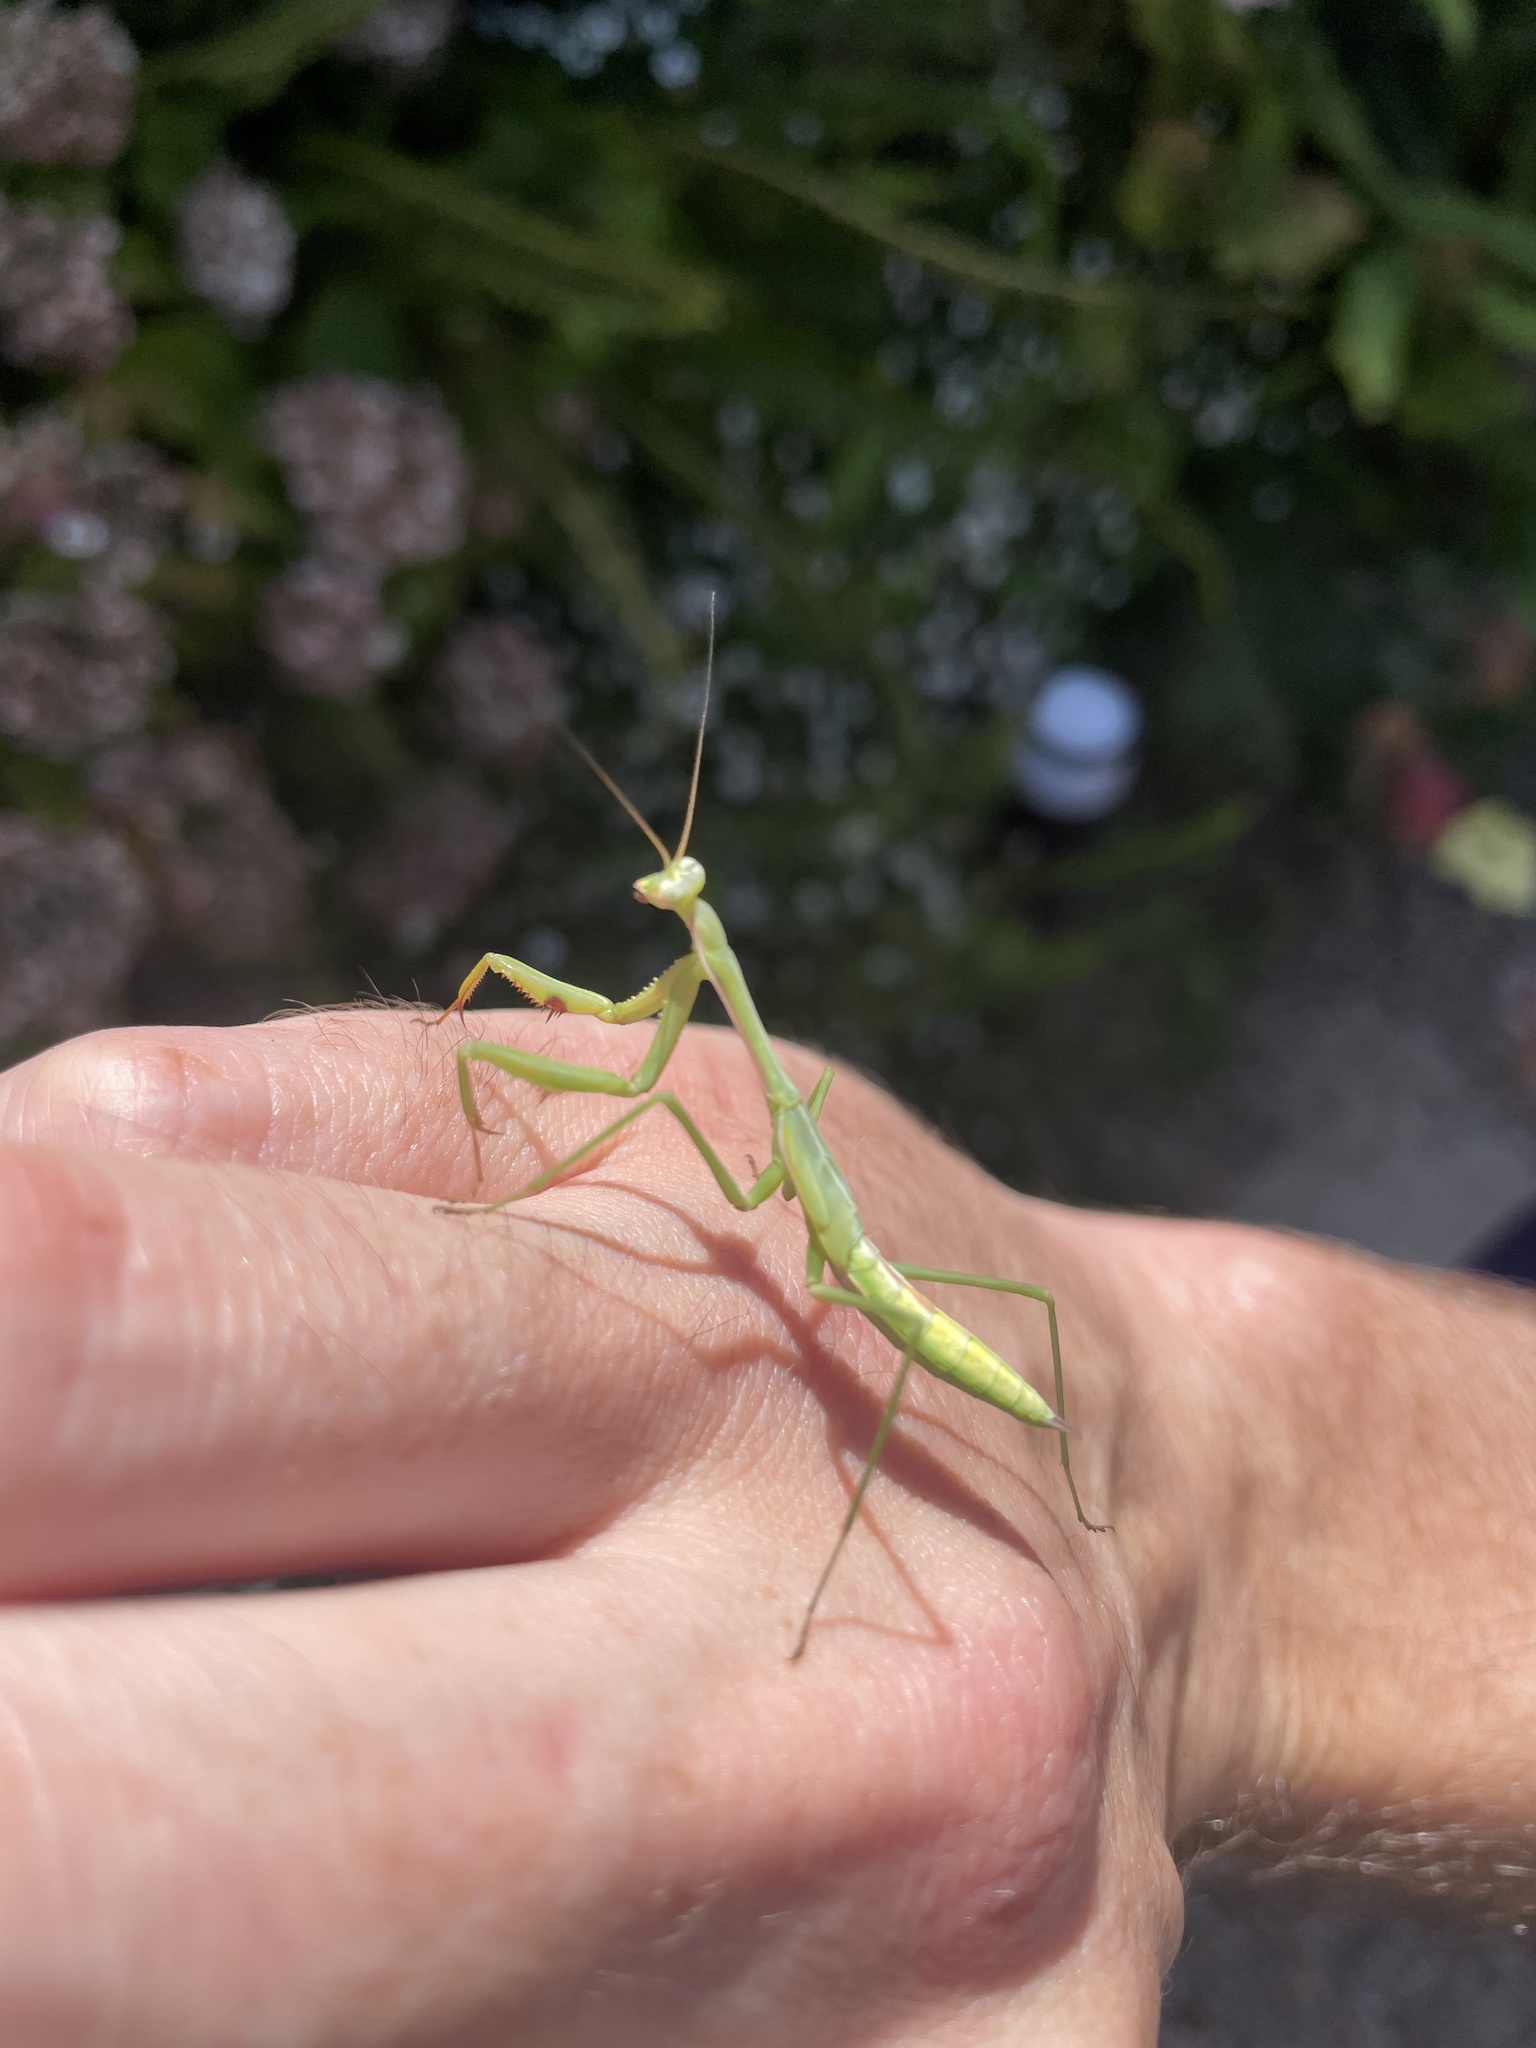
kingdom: Animalia
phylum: Arthropoda
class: Insecta
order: Mantodea
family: Mantidae
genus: Pseudomantis
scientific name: Pseudomantis albofimbriata
